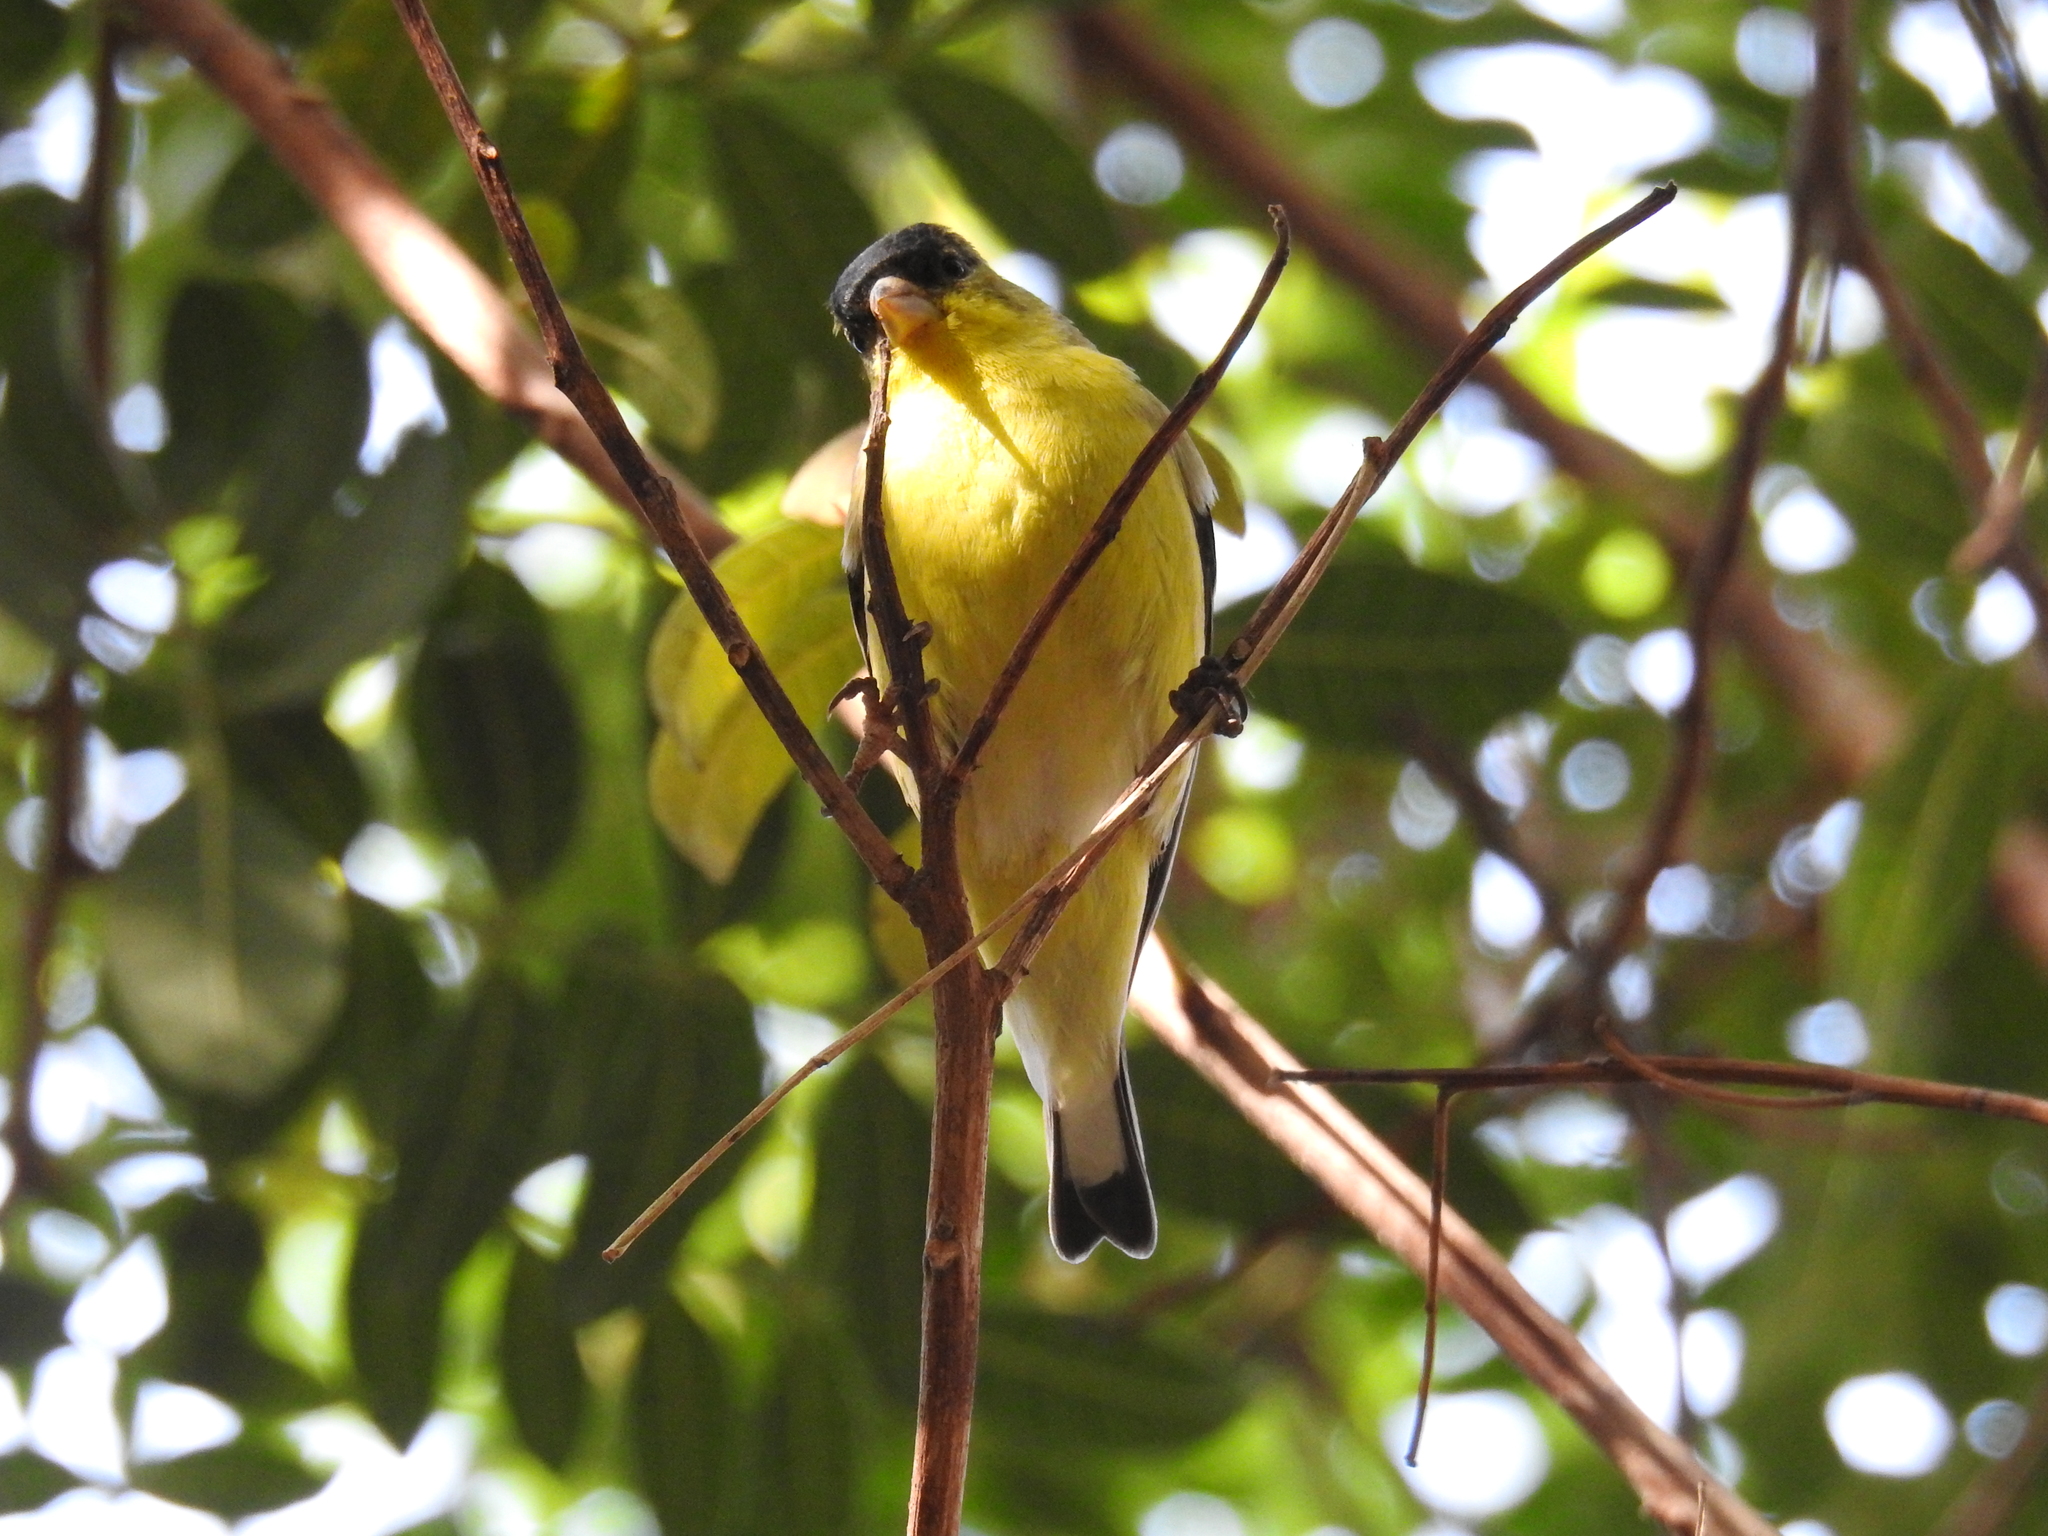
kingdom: Animalia
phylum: Chordata
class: Aves
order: Passeriformes
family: Fringillidae
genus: Spinus
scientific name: Spinus psaltria
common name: Lesser goldfinch
